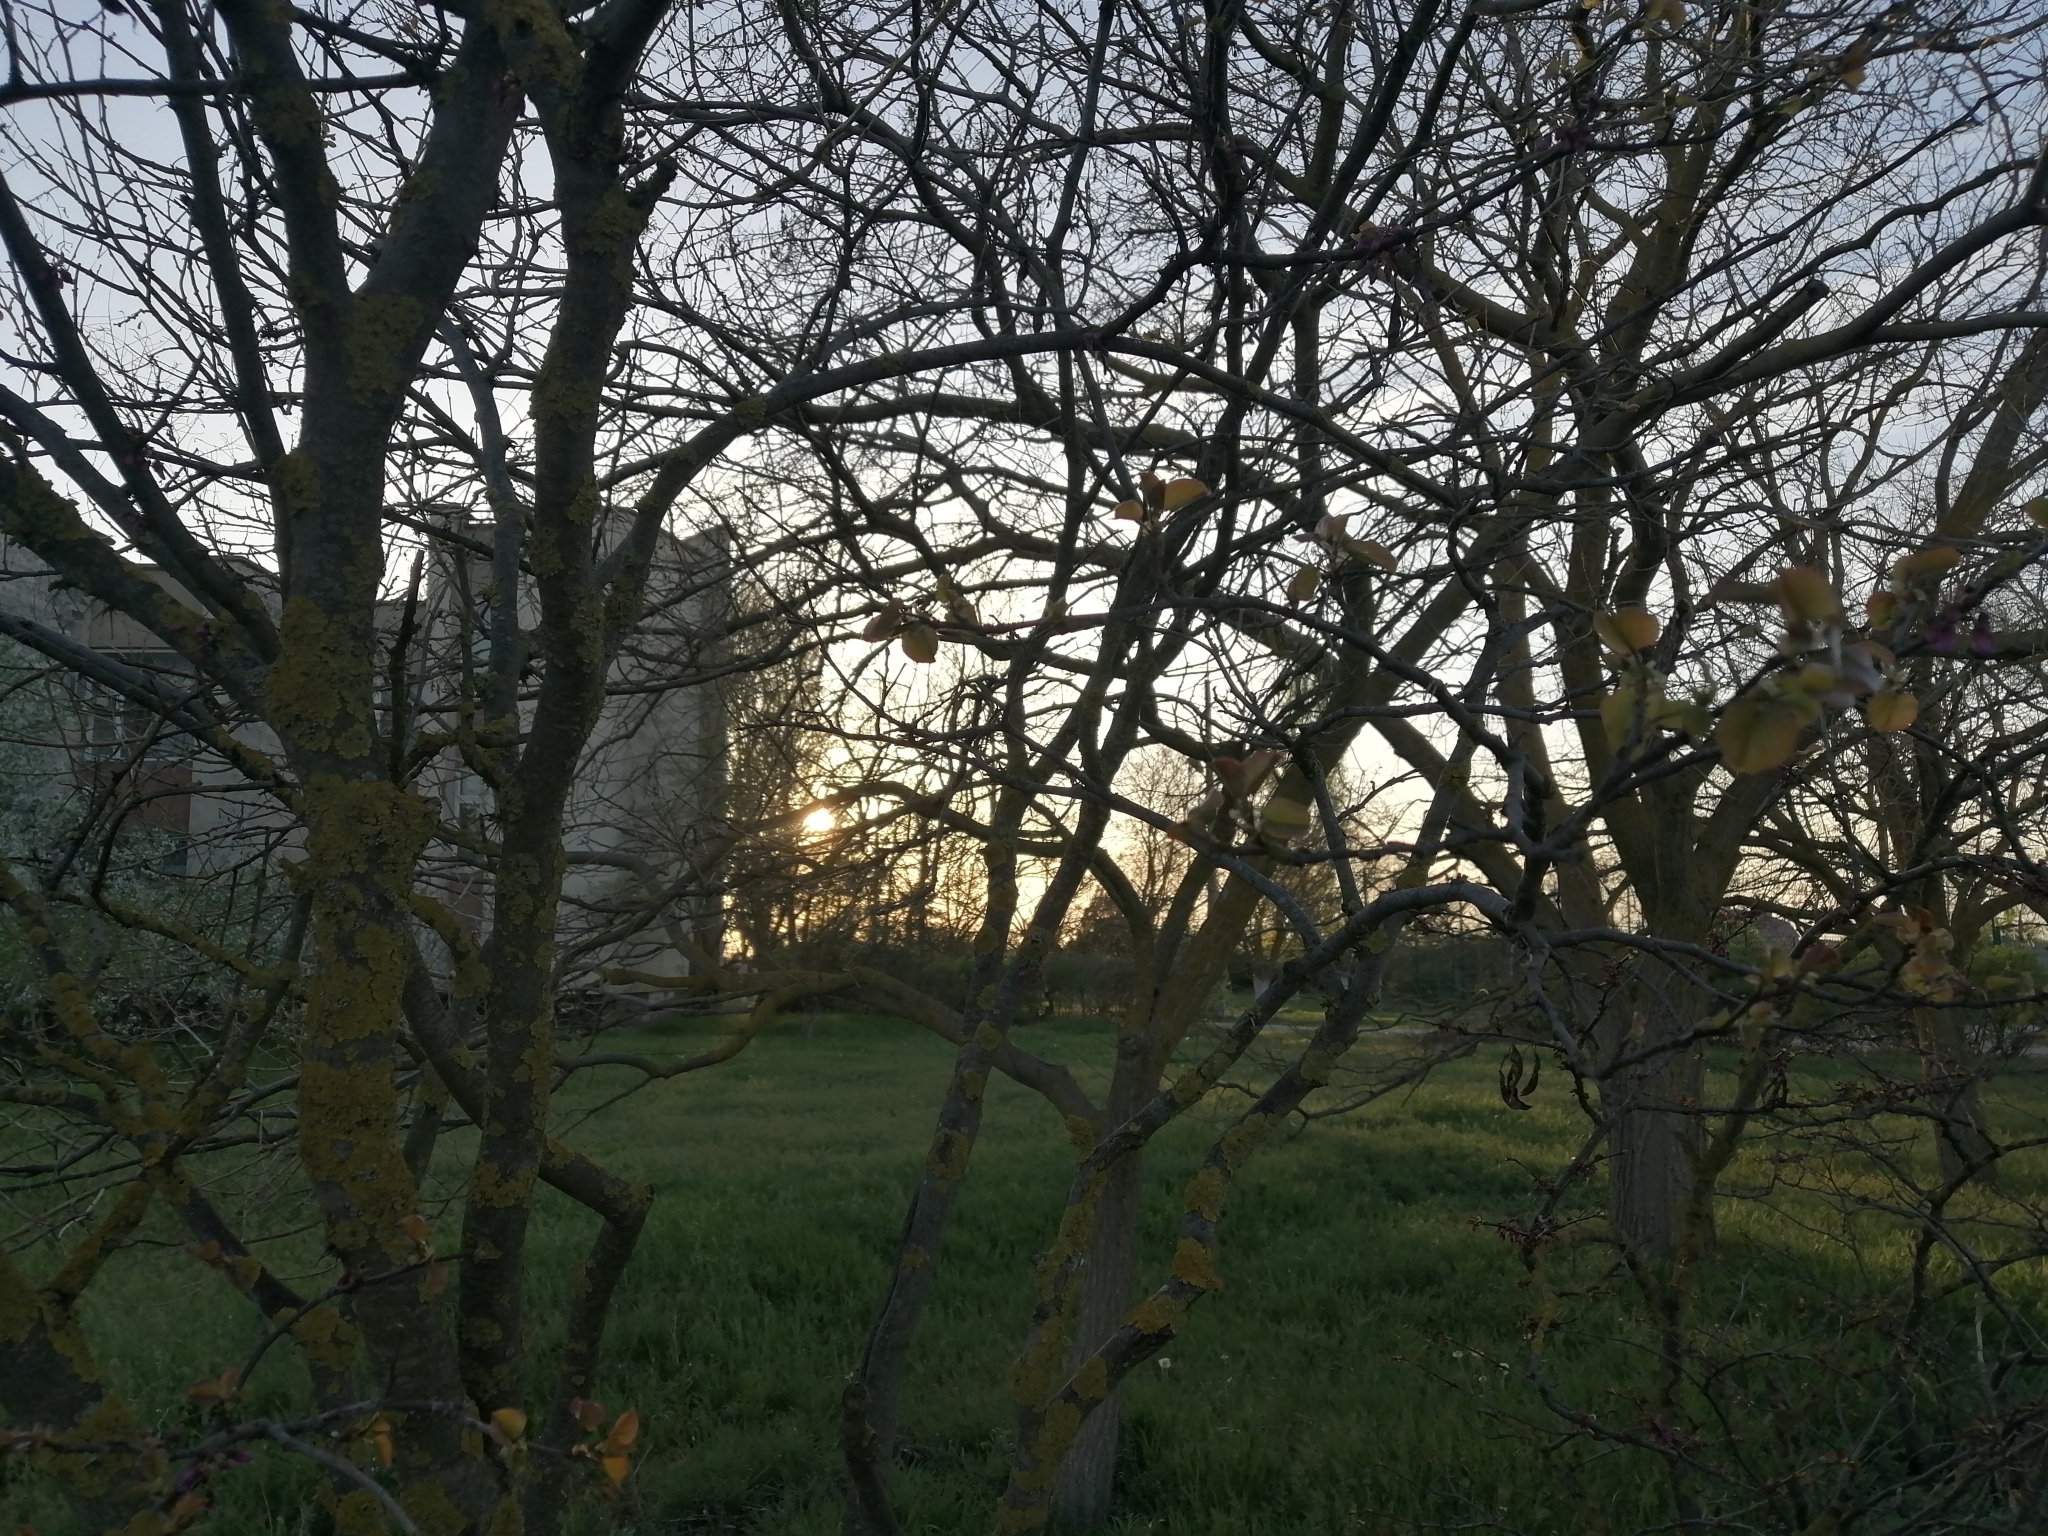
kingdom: Plantae
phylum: Tracheophyta
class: Magnoliopsida
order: Fabales
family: Fabaceae
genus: Cercis
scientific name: Cercis siliquastrum
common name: Judas tree
